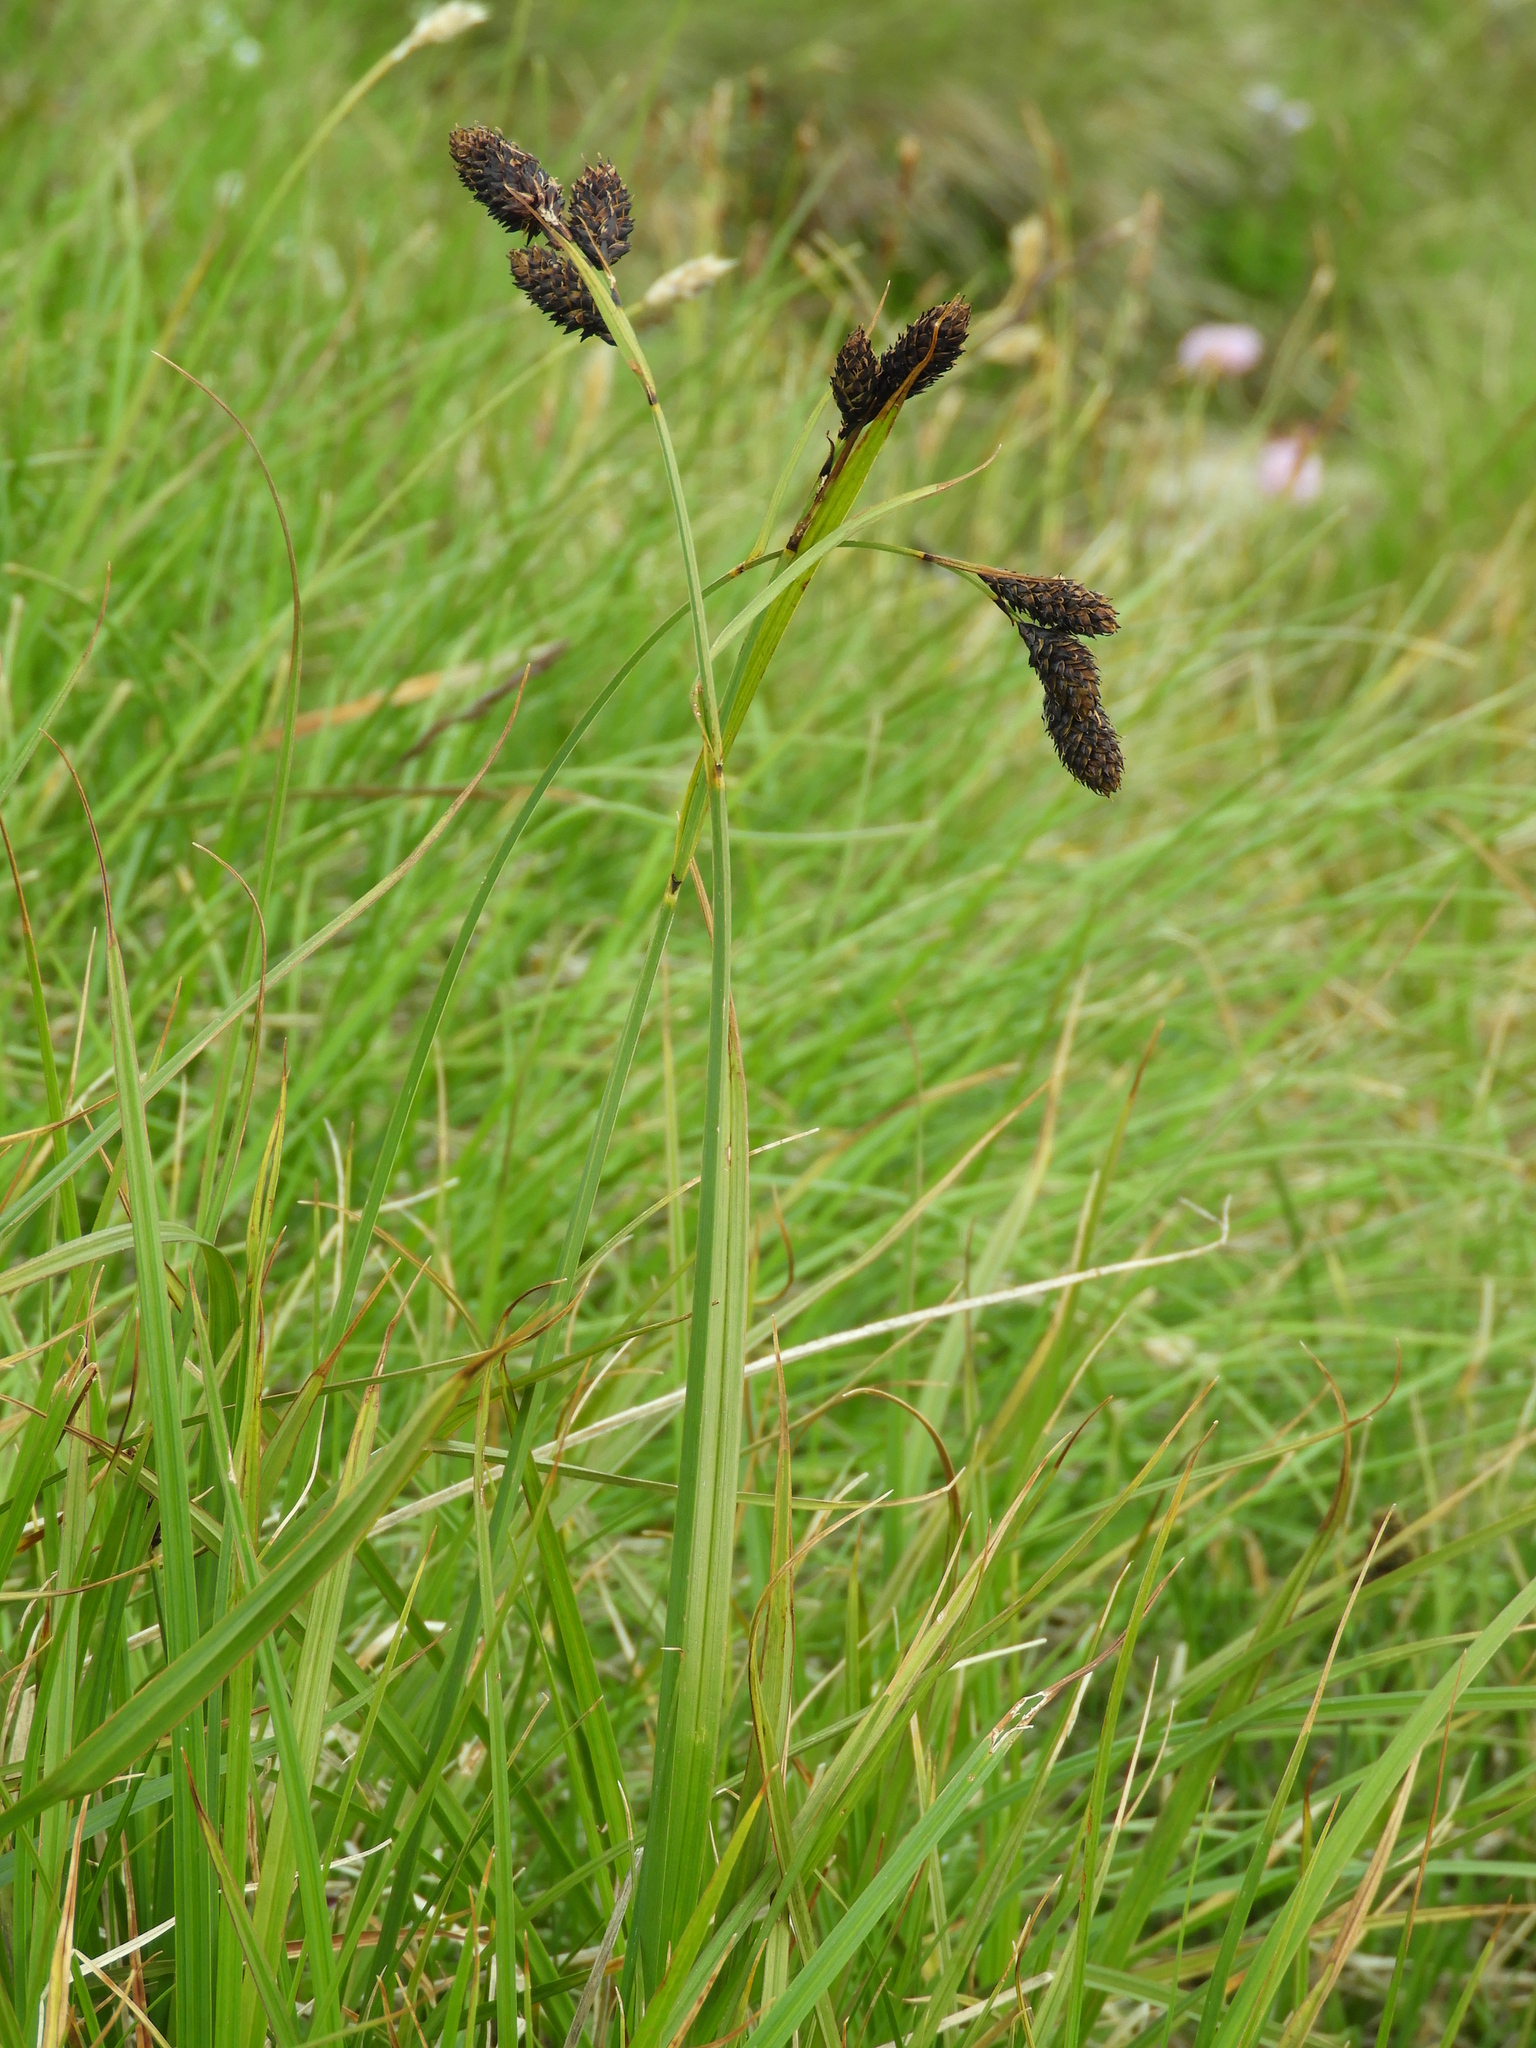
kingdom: Plantae
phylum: Tracheophyta
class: Liliopsida
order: Poales
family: Cyperaceae
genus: Carex
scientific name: Carex atrata
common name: Black alpine sedge
